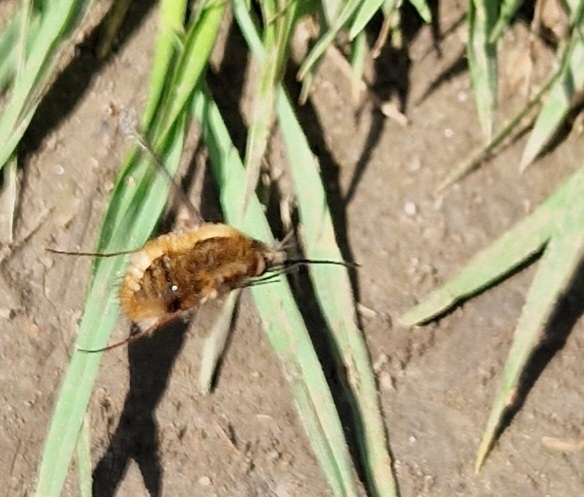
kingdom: Animalia
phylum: Arthropoda
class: Insecta
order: Diptera
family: Bombyliidae
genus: Bombylius
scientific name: Bombylius major
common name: Bee fly
